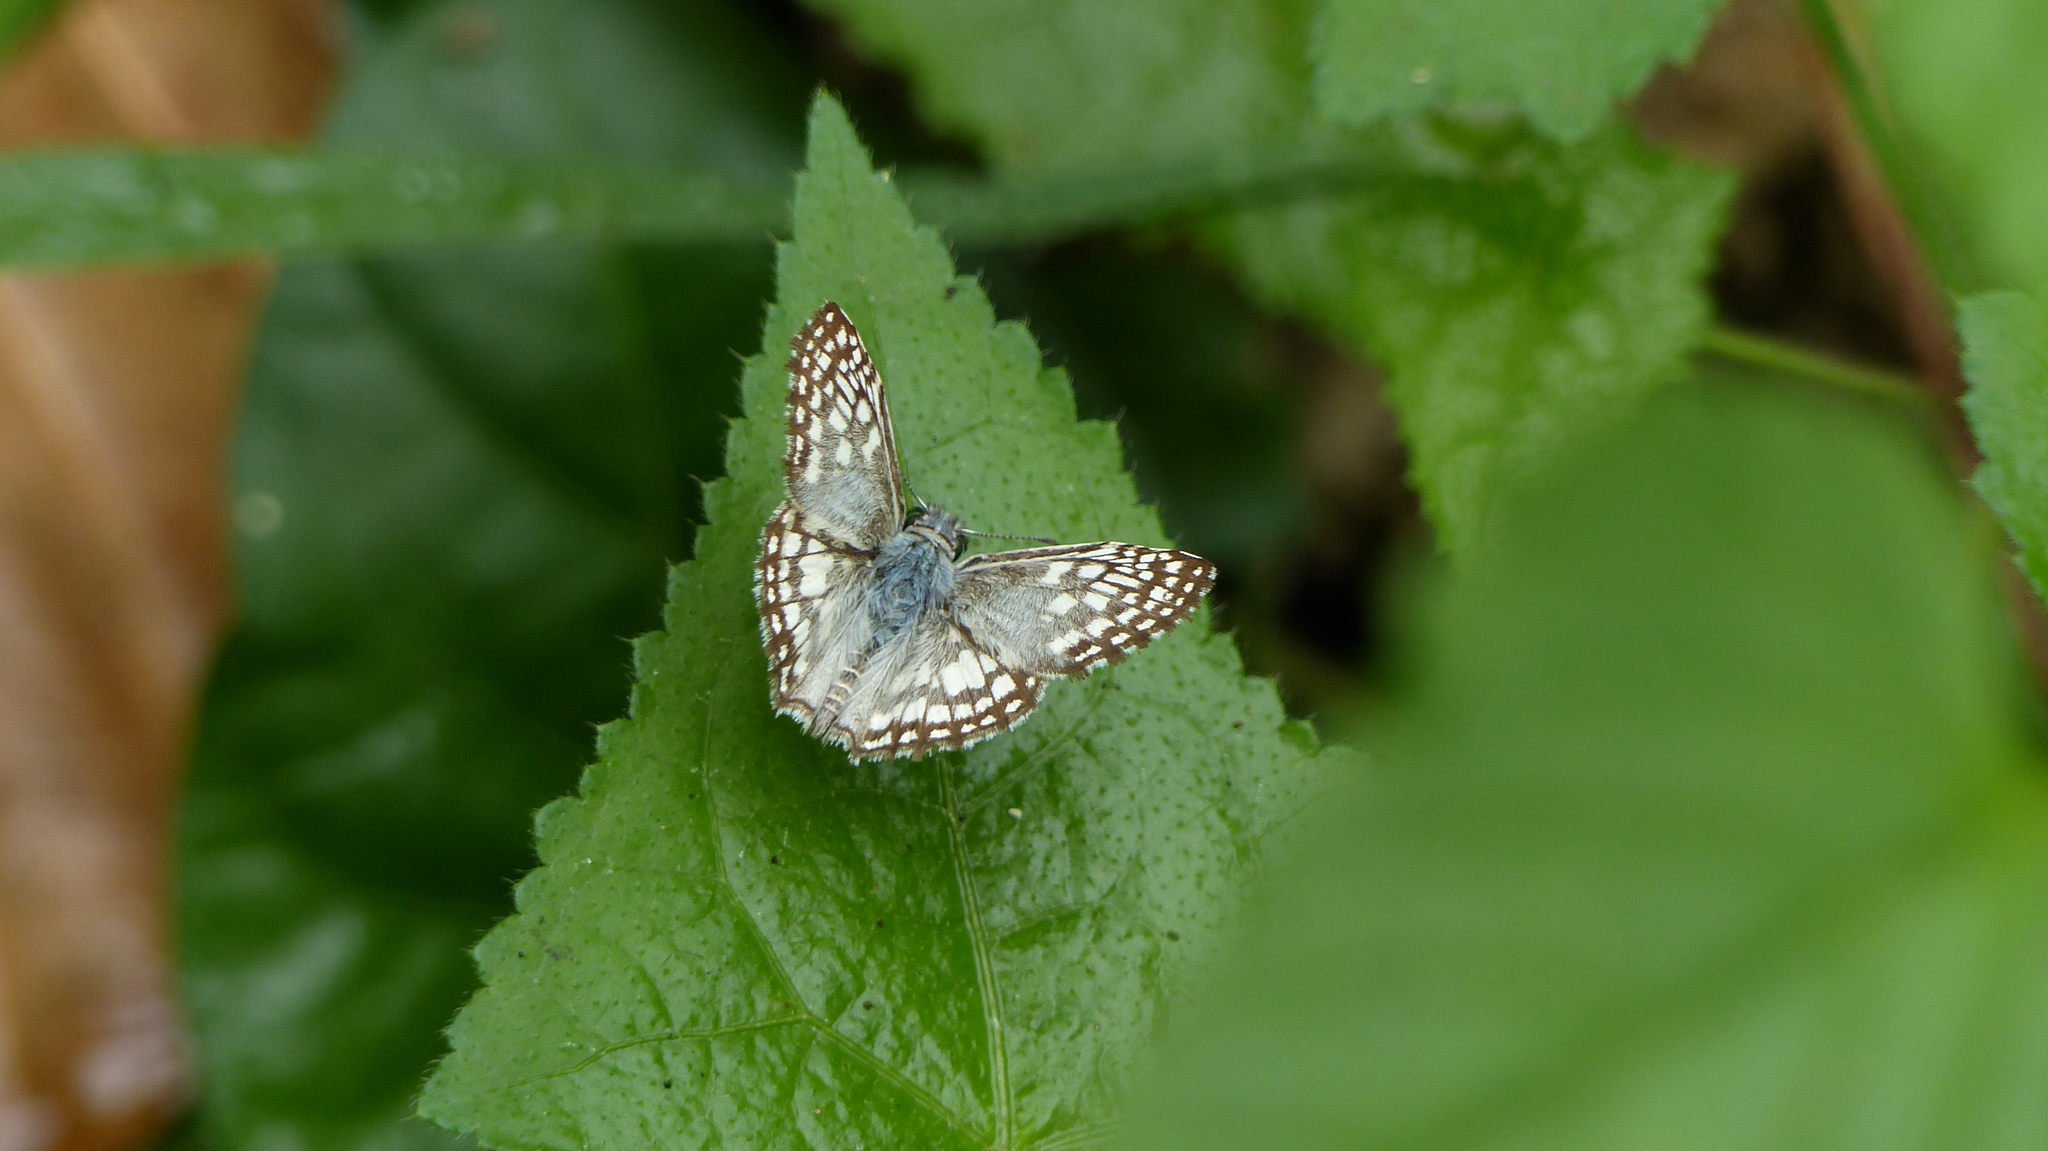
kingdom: Animalia
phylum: Arthropoda
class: Insecta
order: Lepidoptera
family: Hesperiidae
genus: Pyrgus
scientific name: Pyrgus oileus
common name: Tropical checkered-skipper
